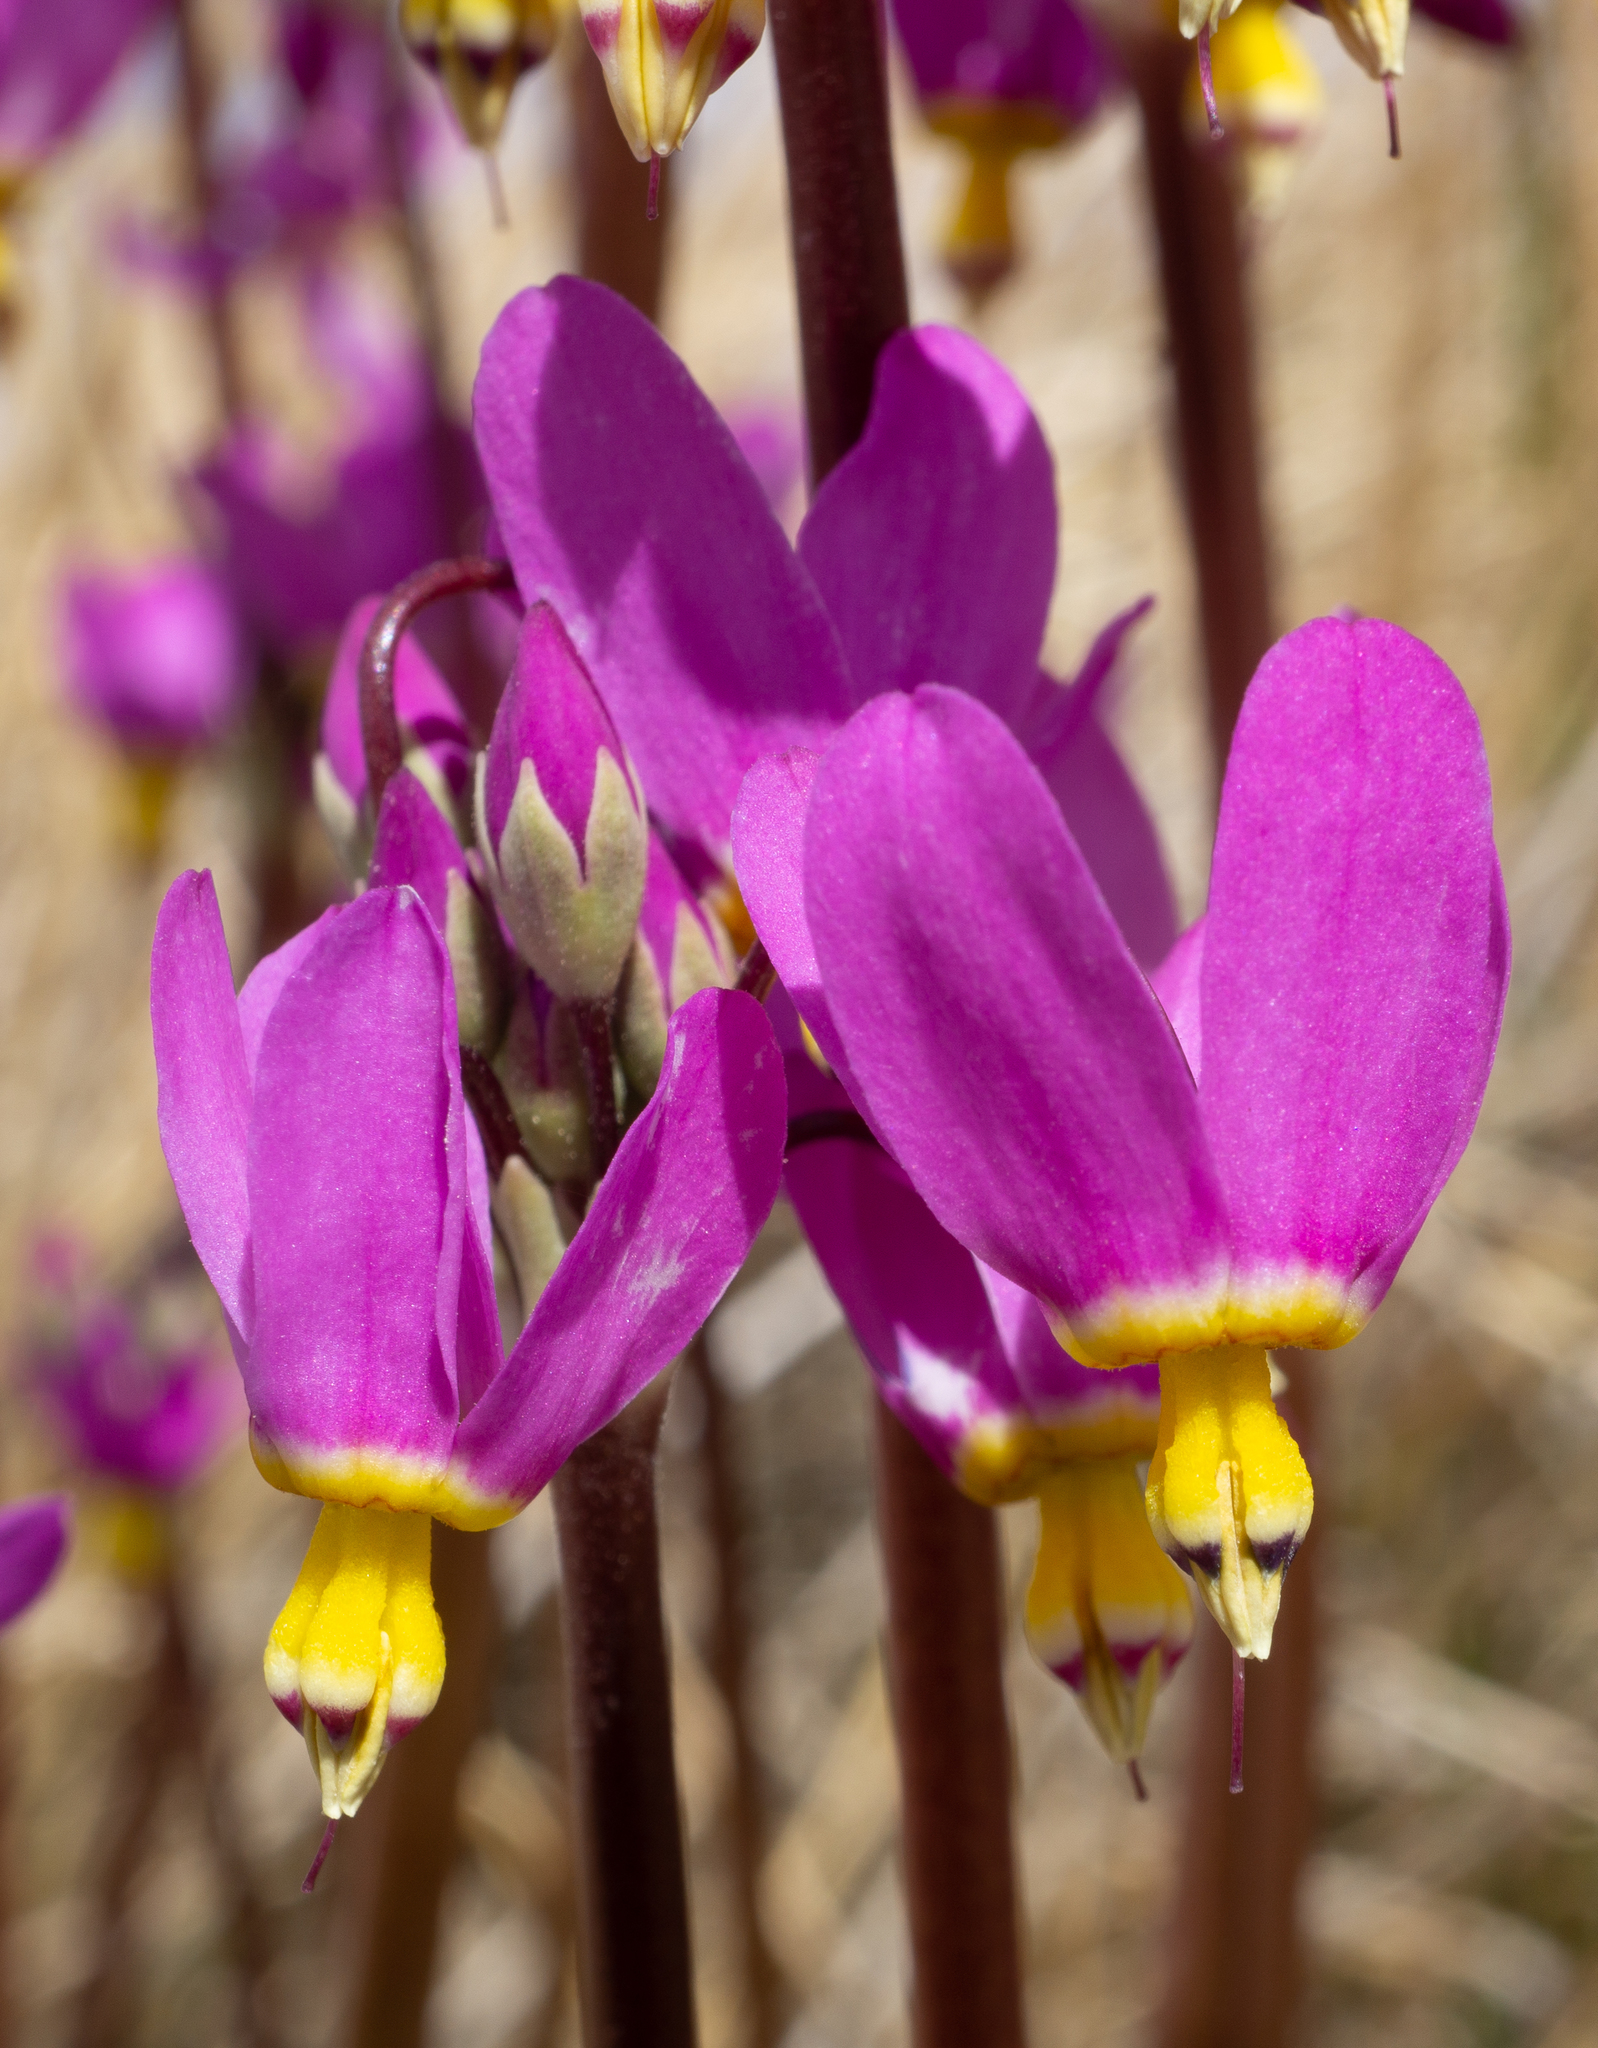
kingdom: Plantae
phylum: Tracheophyta
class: Magnoliopsida
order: Ericales
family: Primulaceae
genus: Dodecatheon
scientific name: Dodecatheon pulchellum
